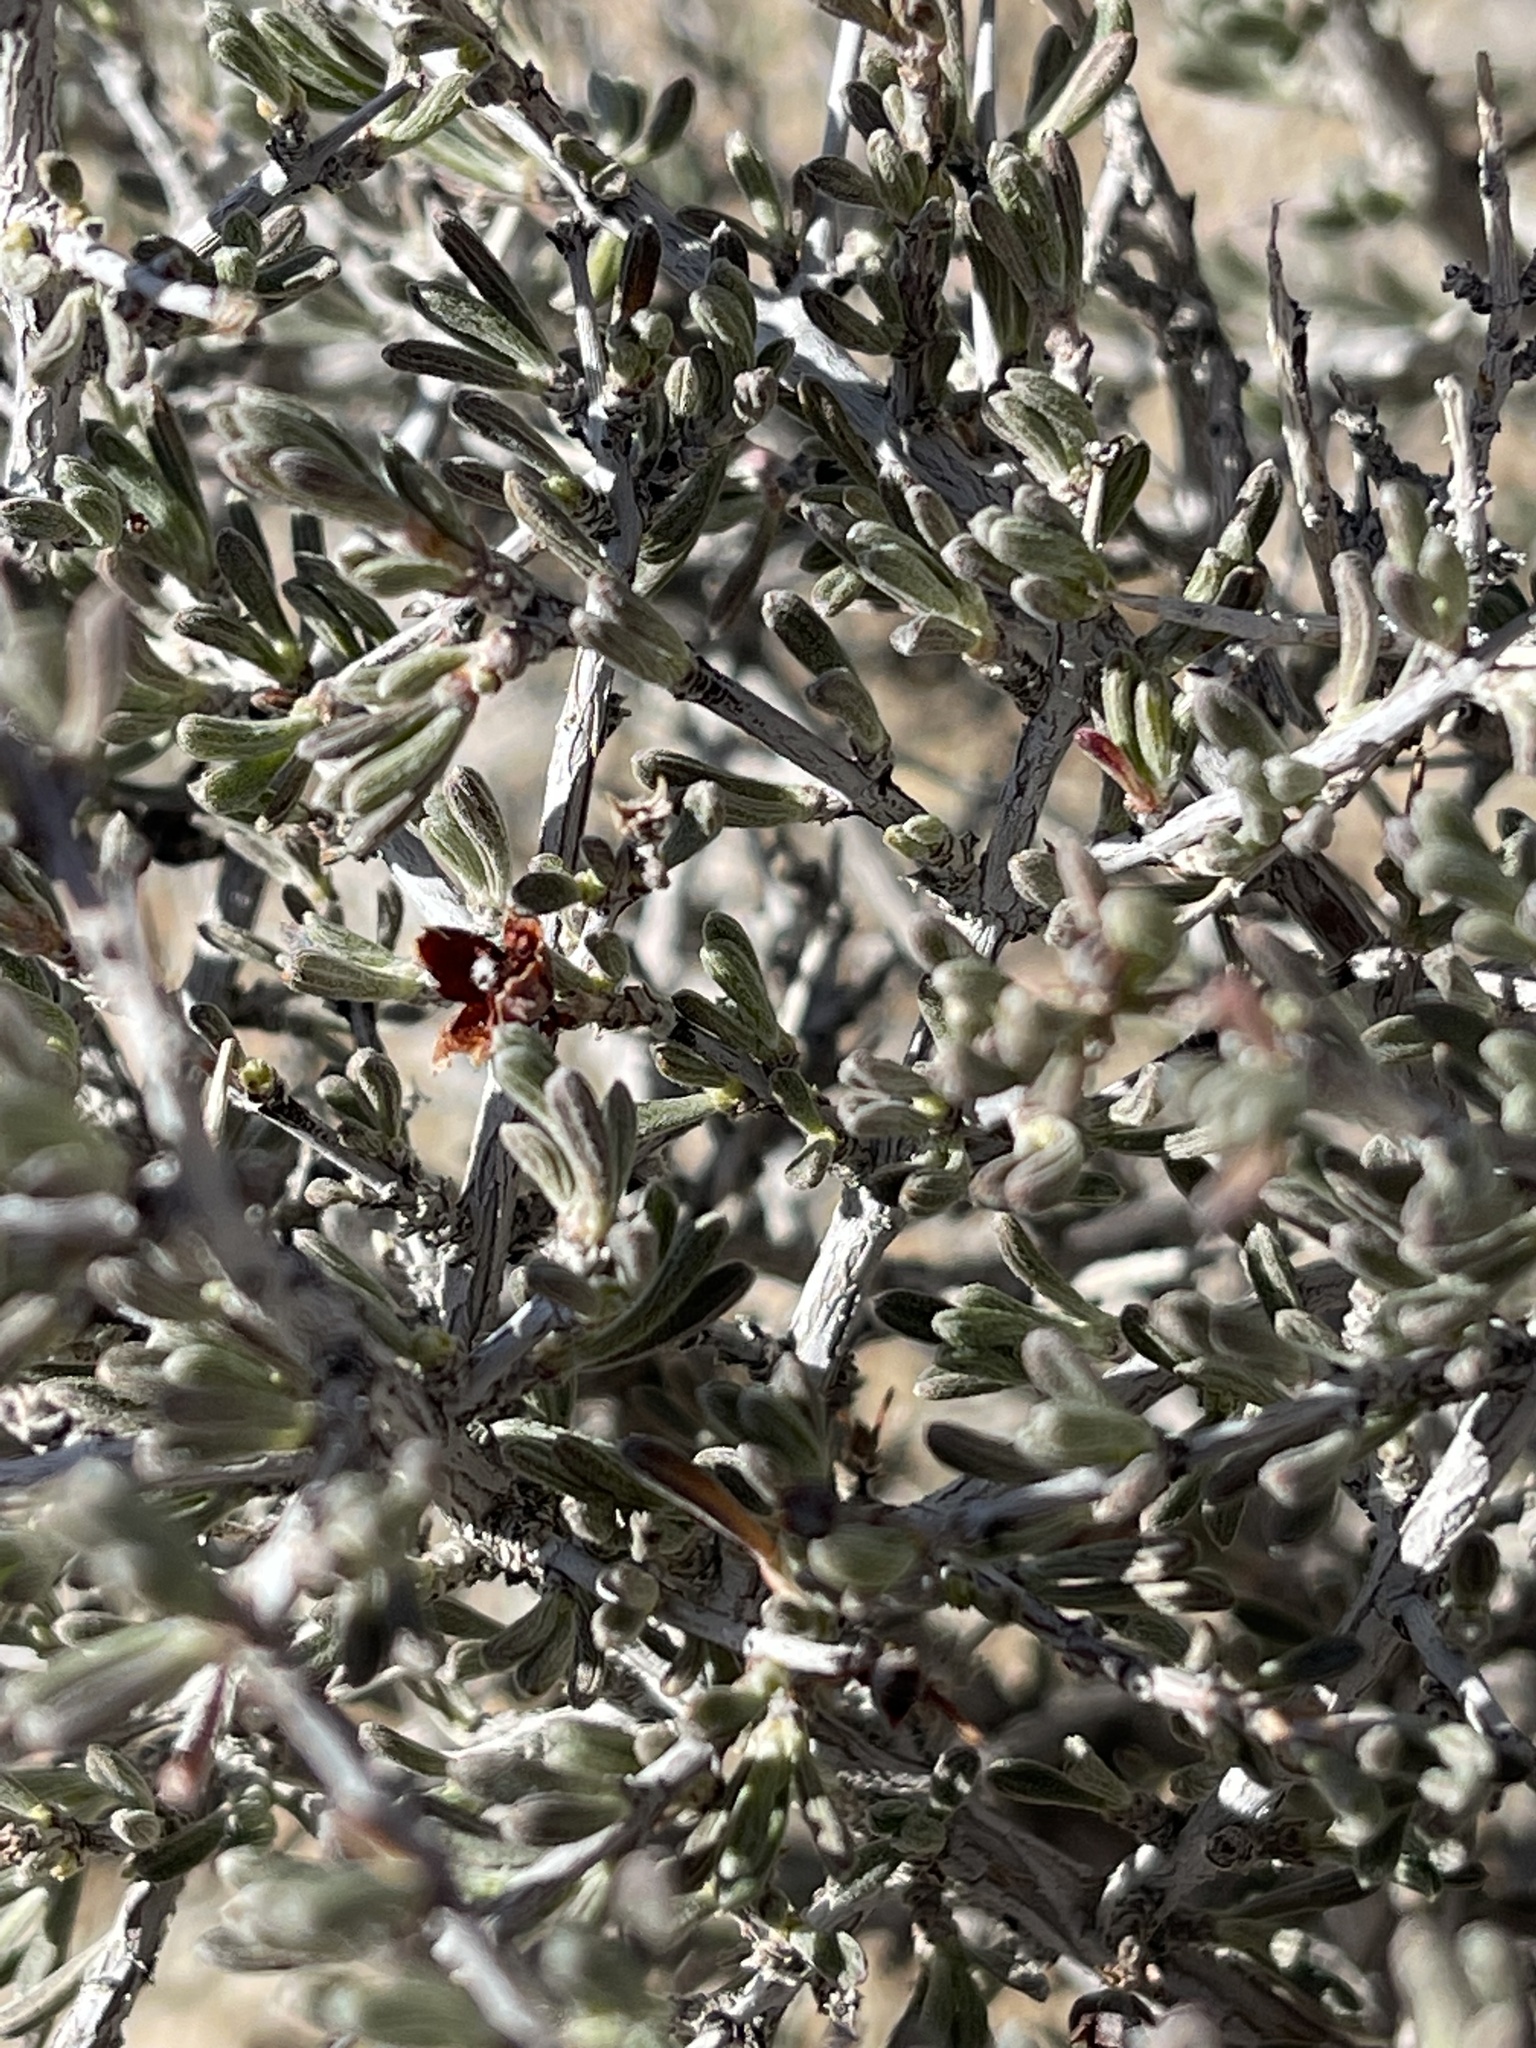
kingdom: Plantae
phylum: Tracheophyta
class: Magnoliopsida
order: Rosales
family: Rosaceae
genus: Coleogyne
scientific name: Coleogyne ramosissima
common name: Blackbrush
